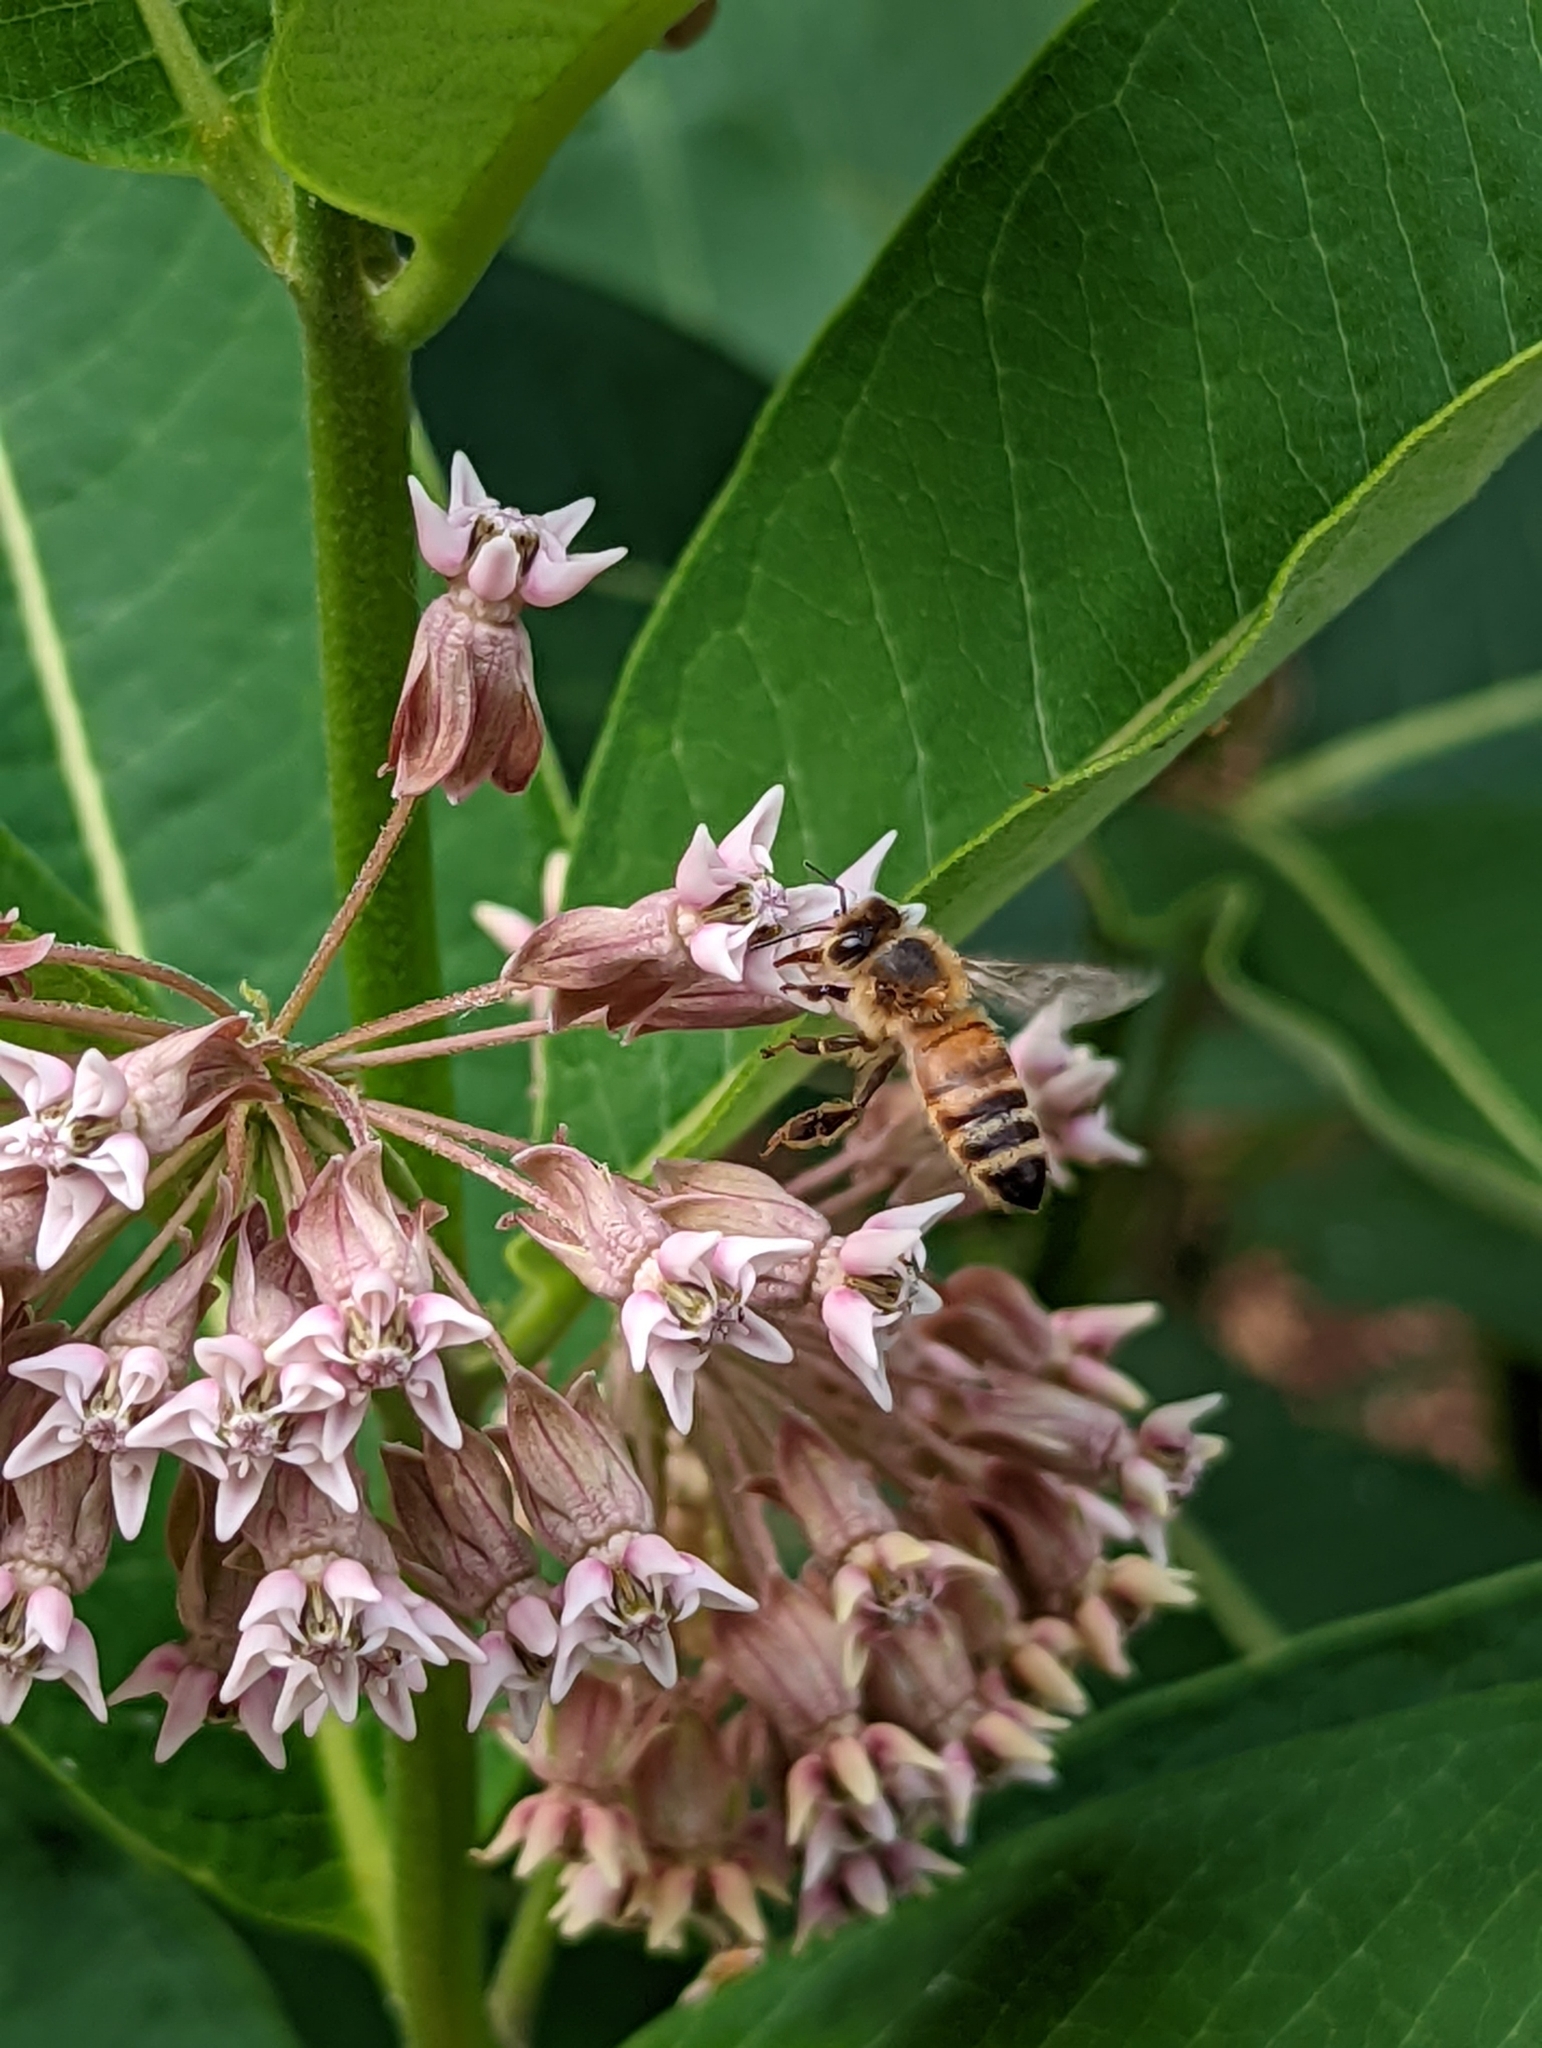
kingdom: Animalia
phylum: Arthropoda
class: Insecta
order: Hymenoptera
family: Apidae
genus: Apis
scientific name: Apis mellifera
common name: Honey bee
